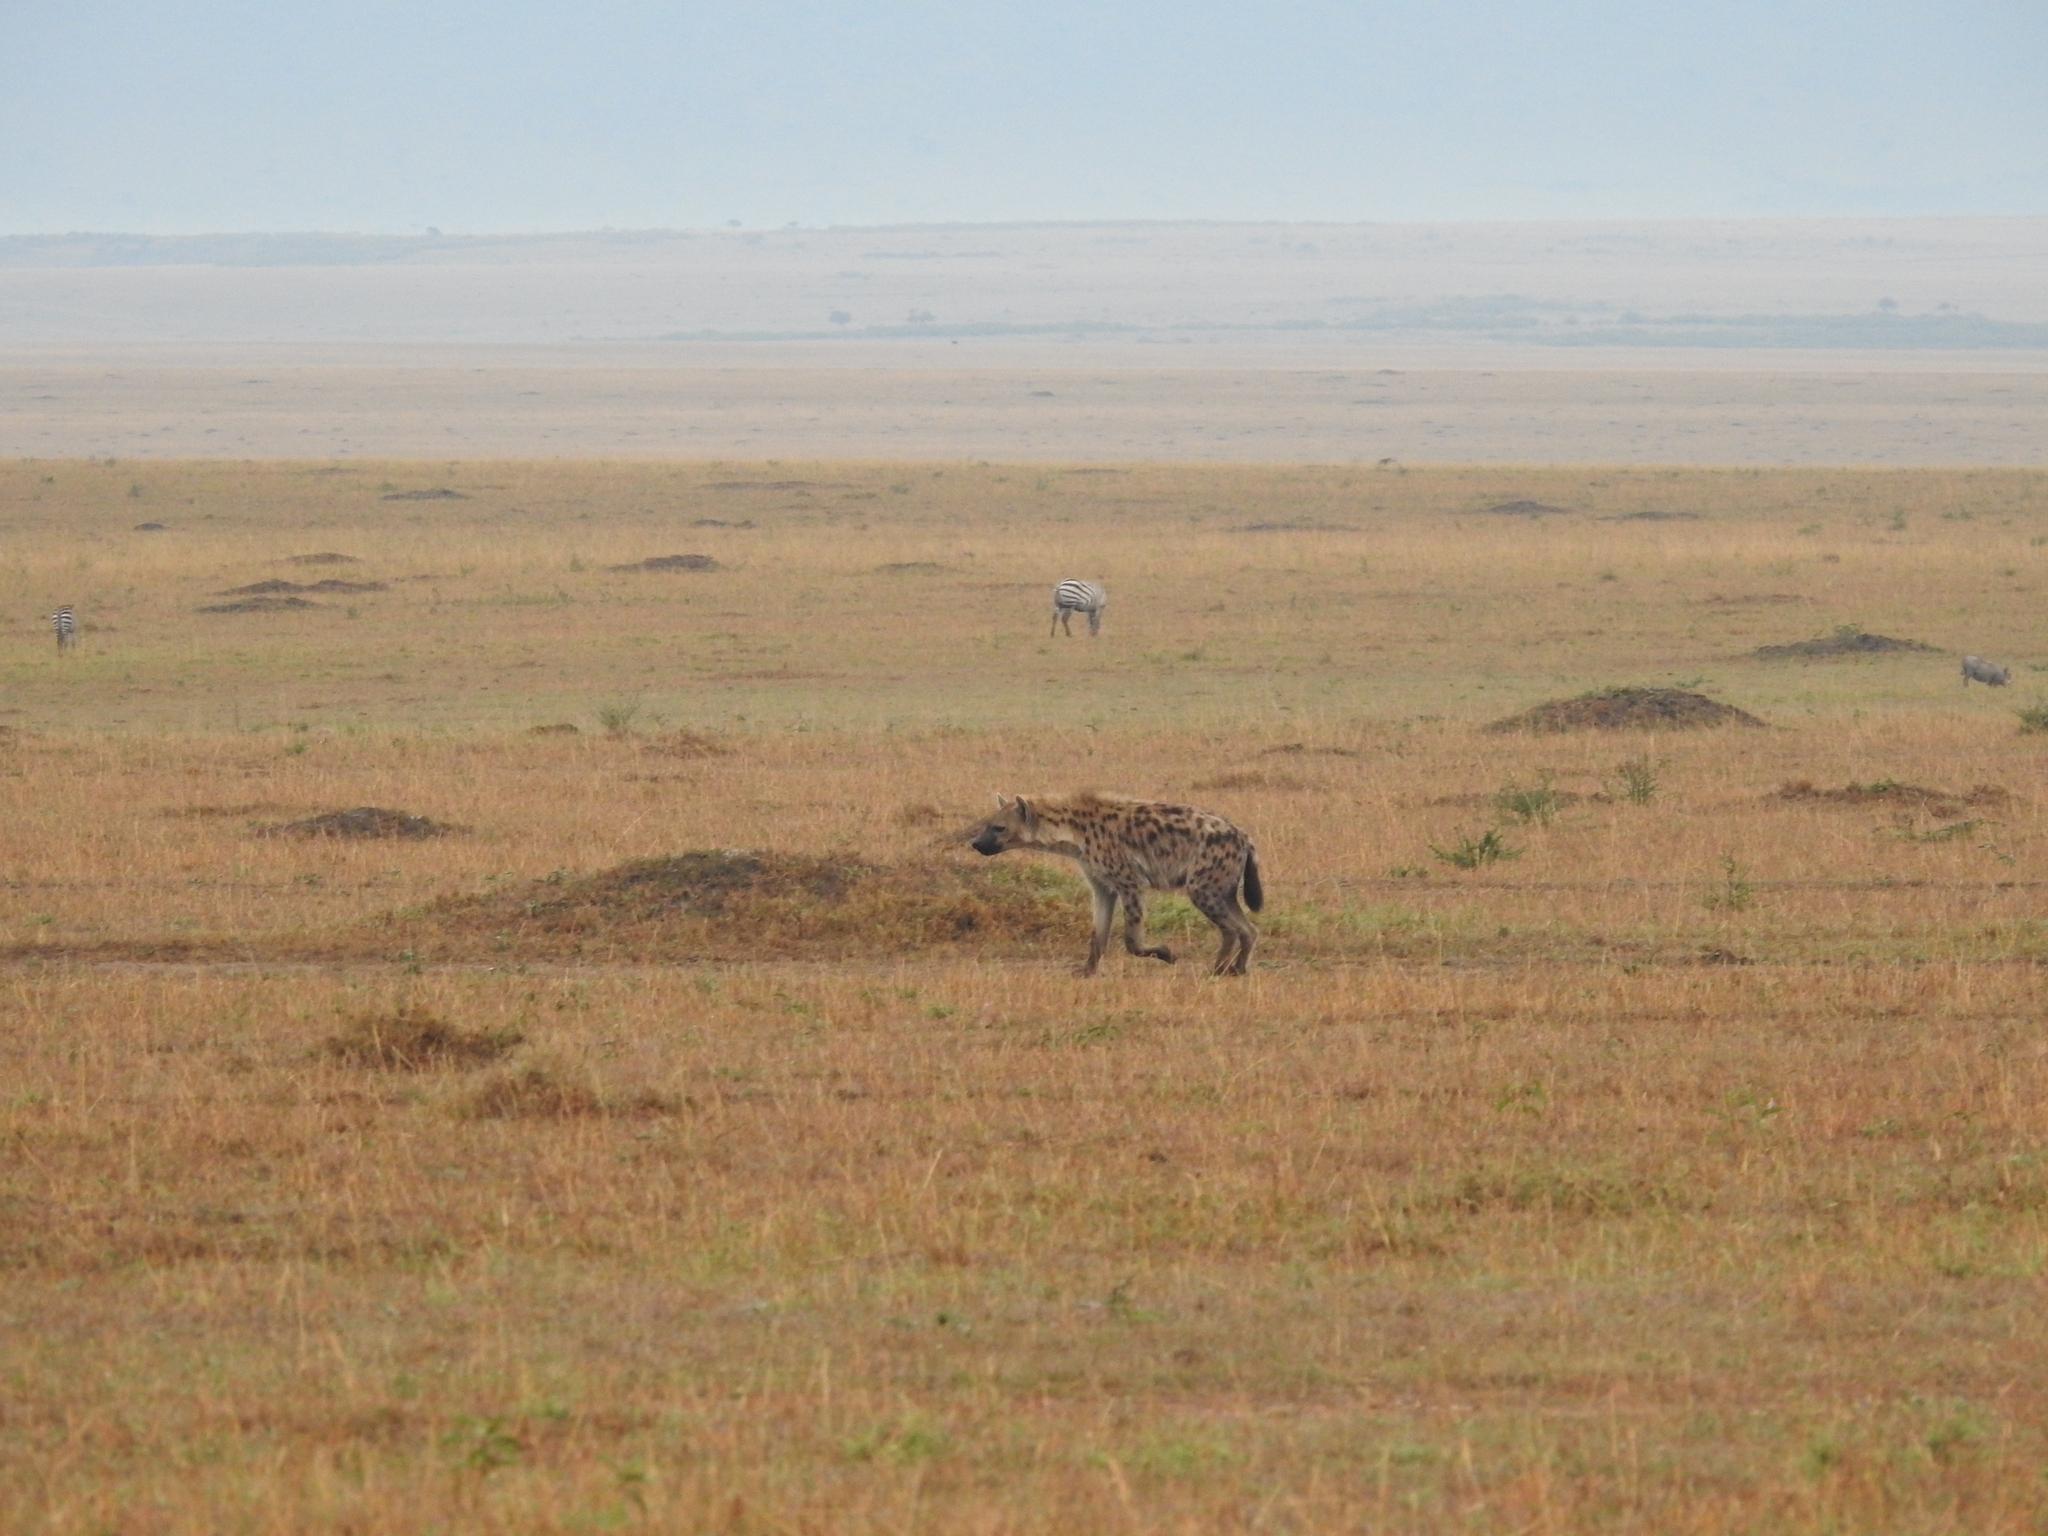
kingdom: Animalia
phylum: Chordata
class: Mammalia
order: Carnivora
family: Hyaenidae
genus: Crocuta
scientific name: Crocuta crocuta
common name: Spotted hyaena
